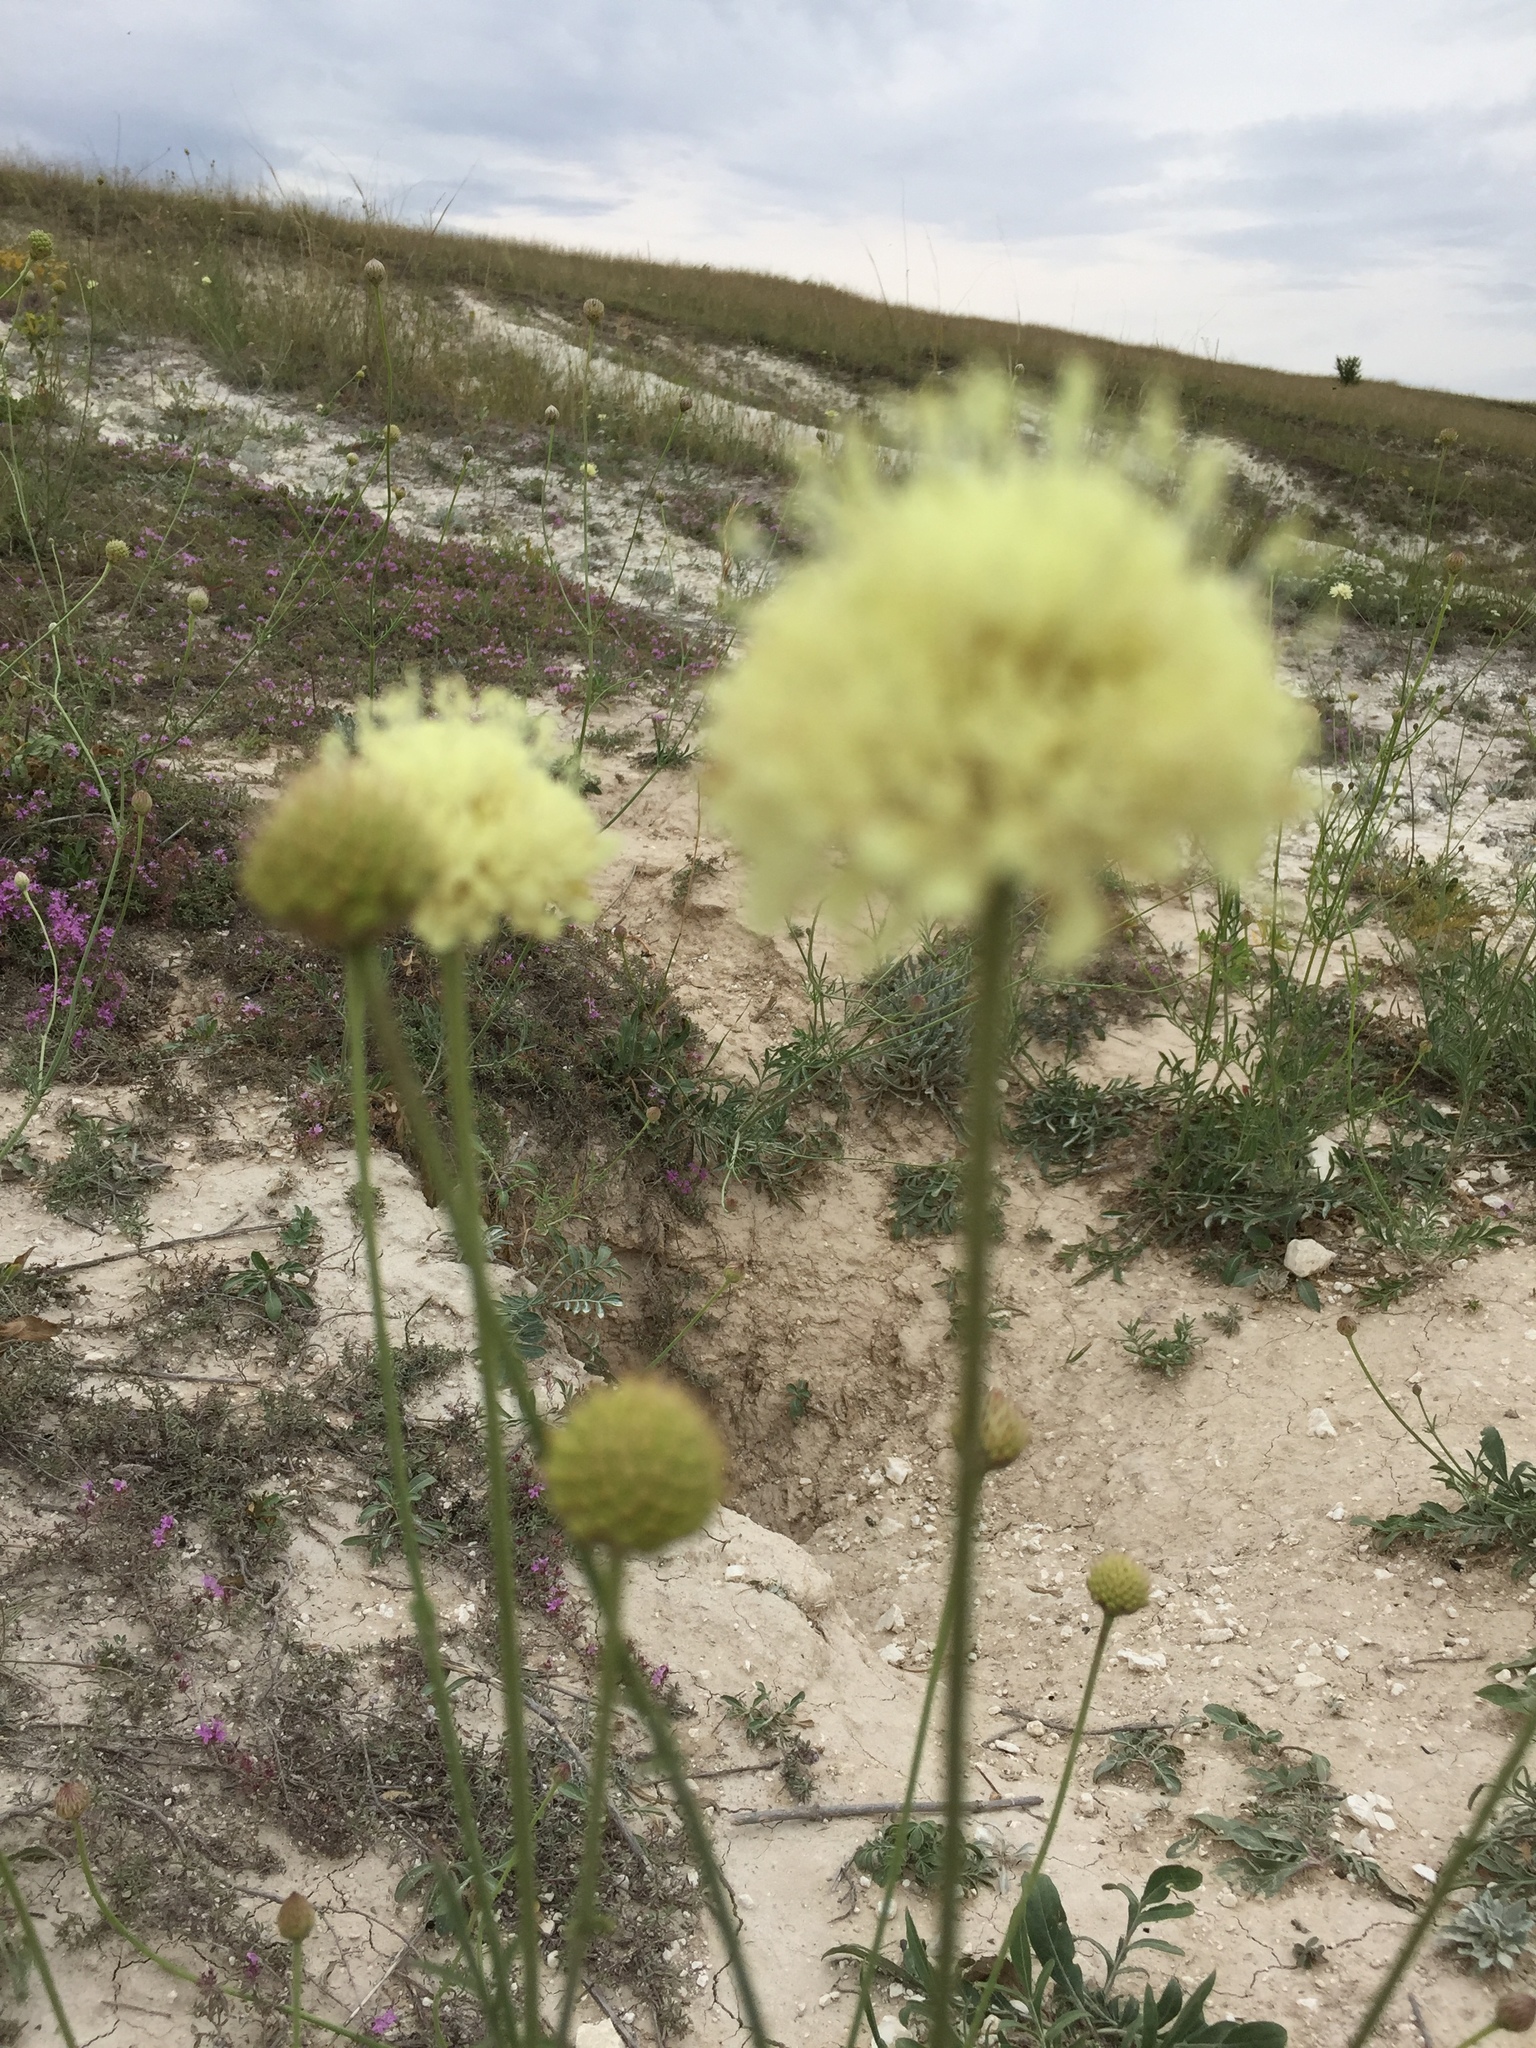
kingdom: Plantae
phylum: Tracheophyta
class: Magnoliopsida
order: Dipsacales
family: Caprifoliaceae
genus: Cephalaria
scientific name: Cephalaria uralensis
